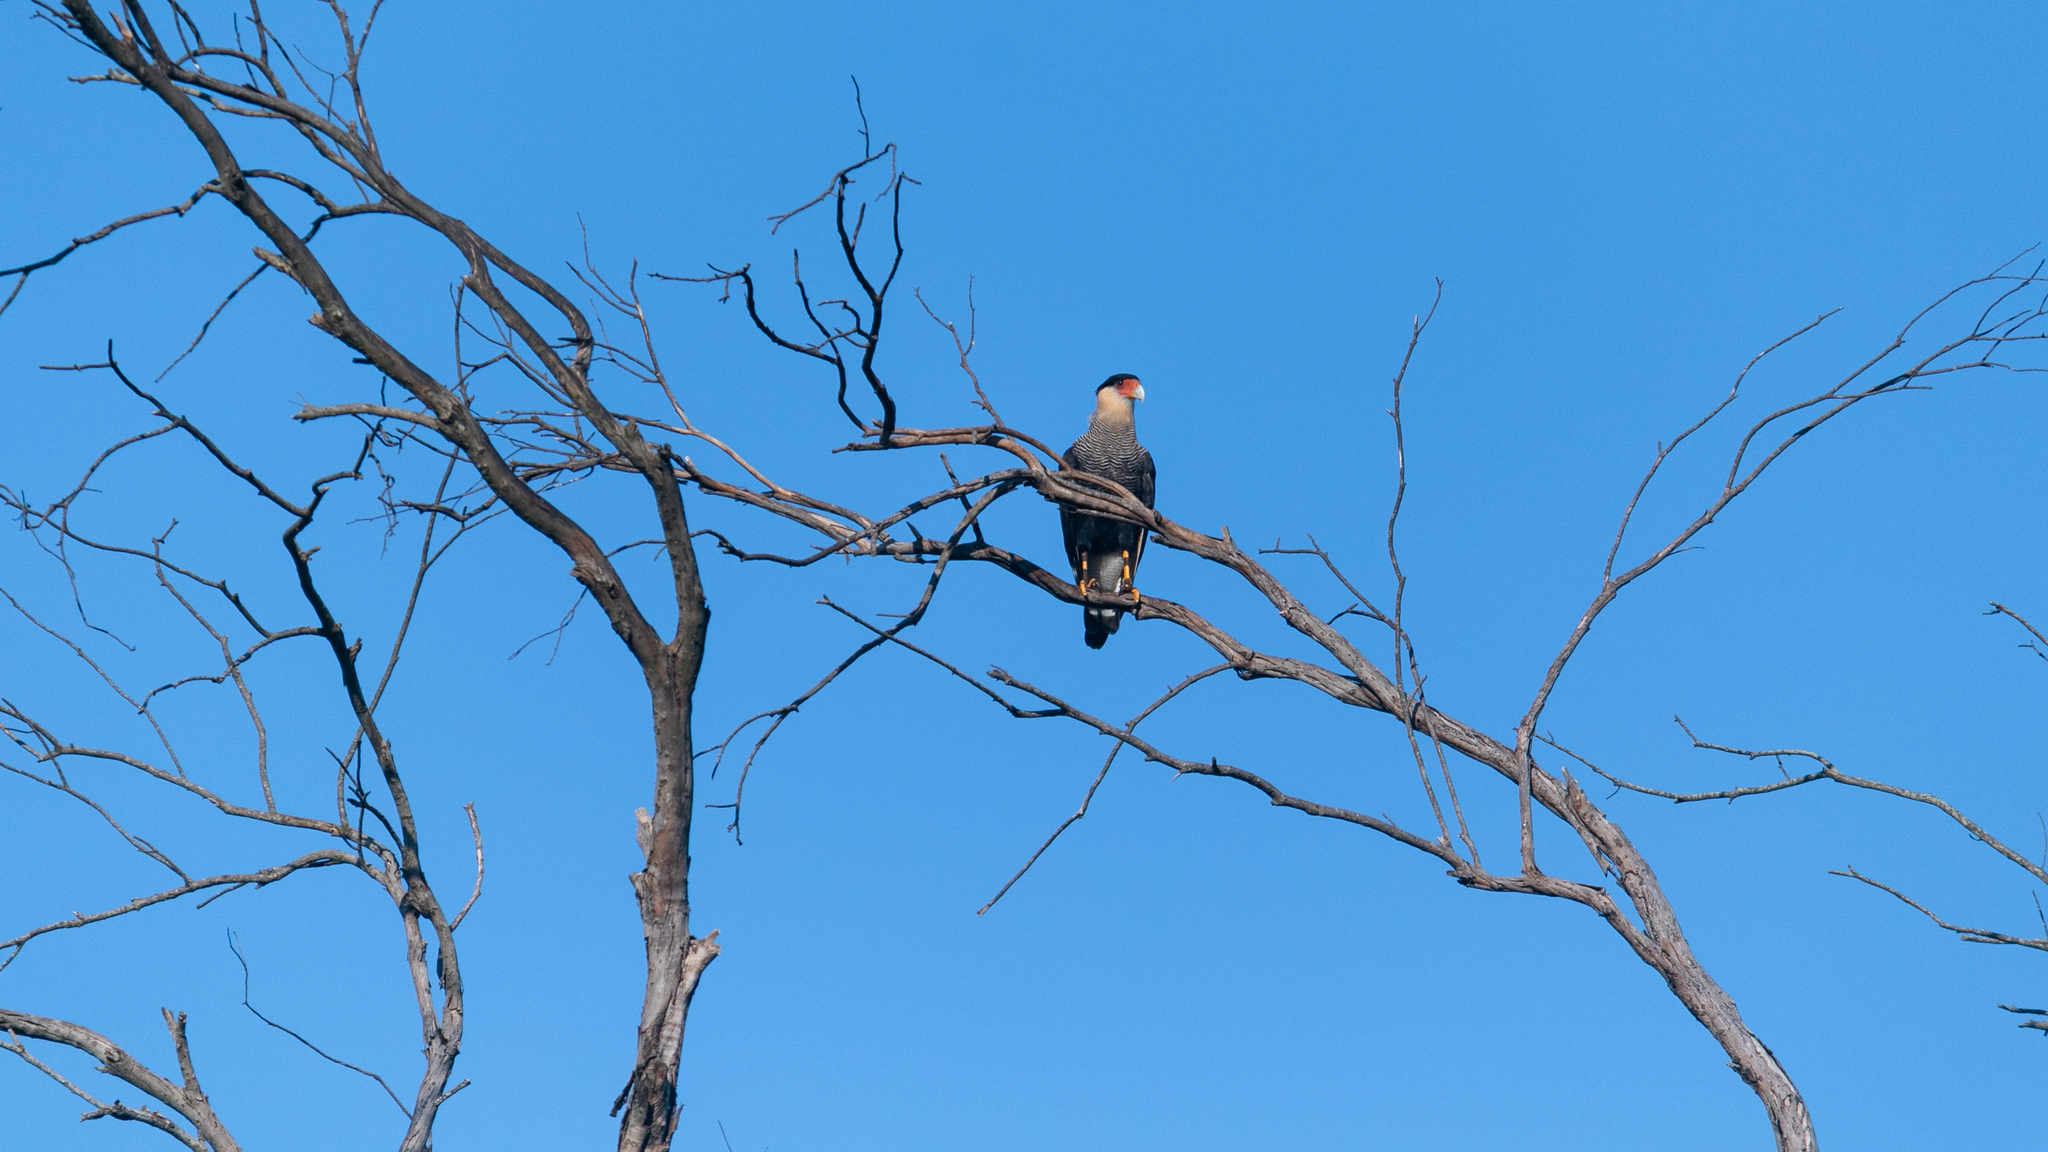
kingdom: Animalia
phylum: Chordata
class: Aves
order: Falconiformes
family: Falconidae
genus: Caracara
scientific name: Caracara plancus
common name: Southern caracara
